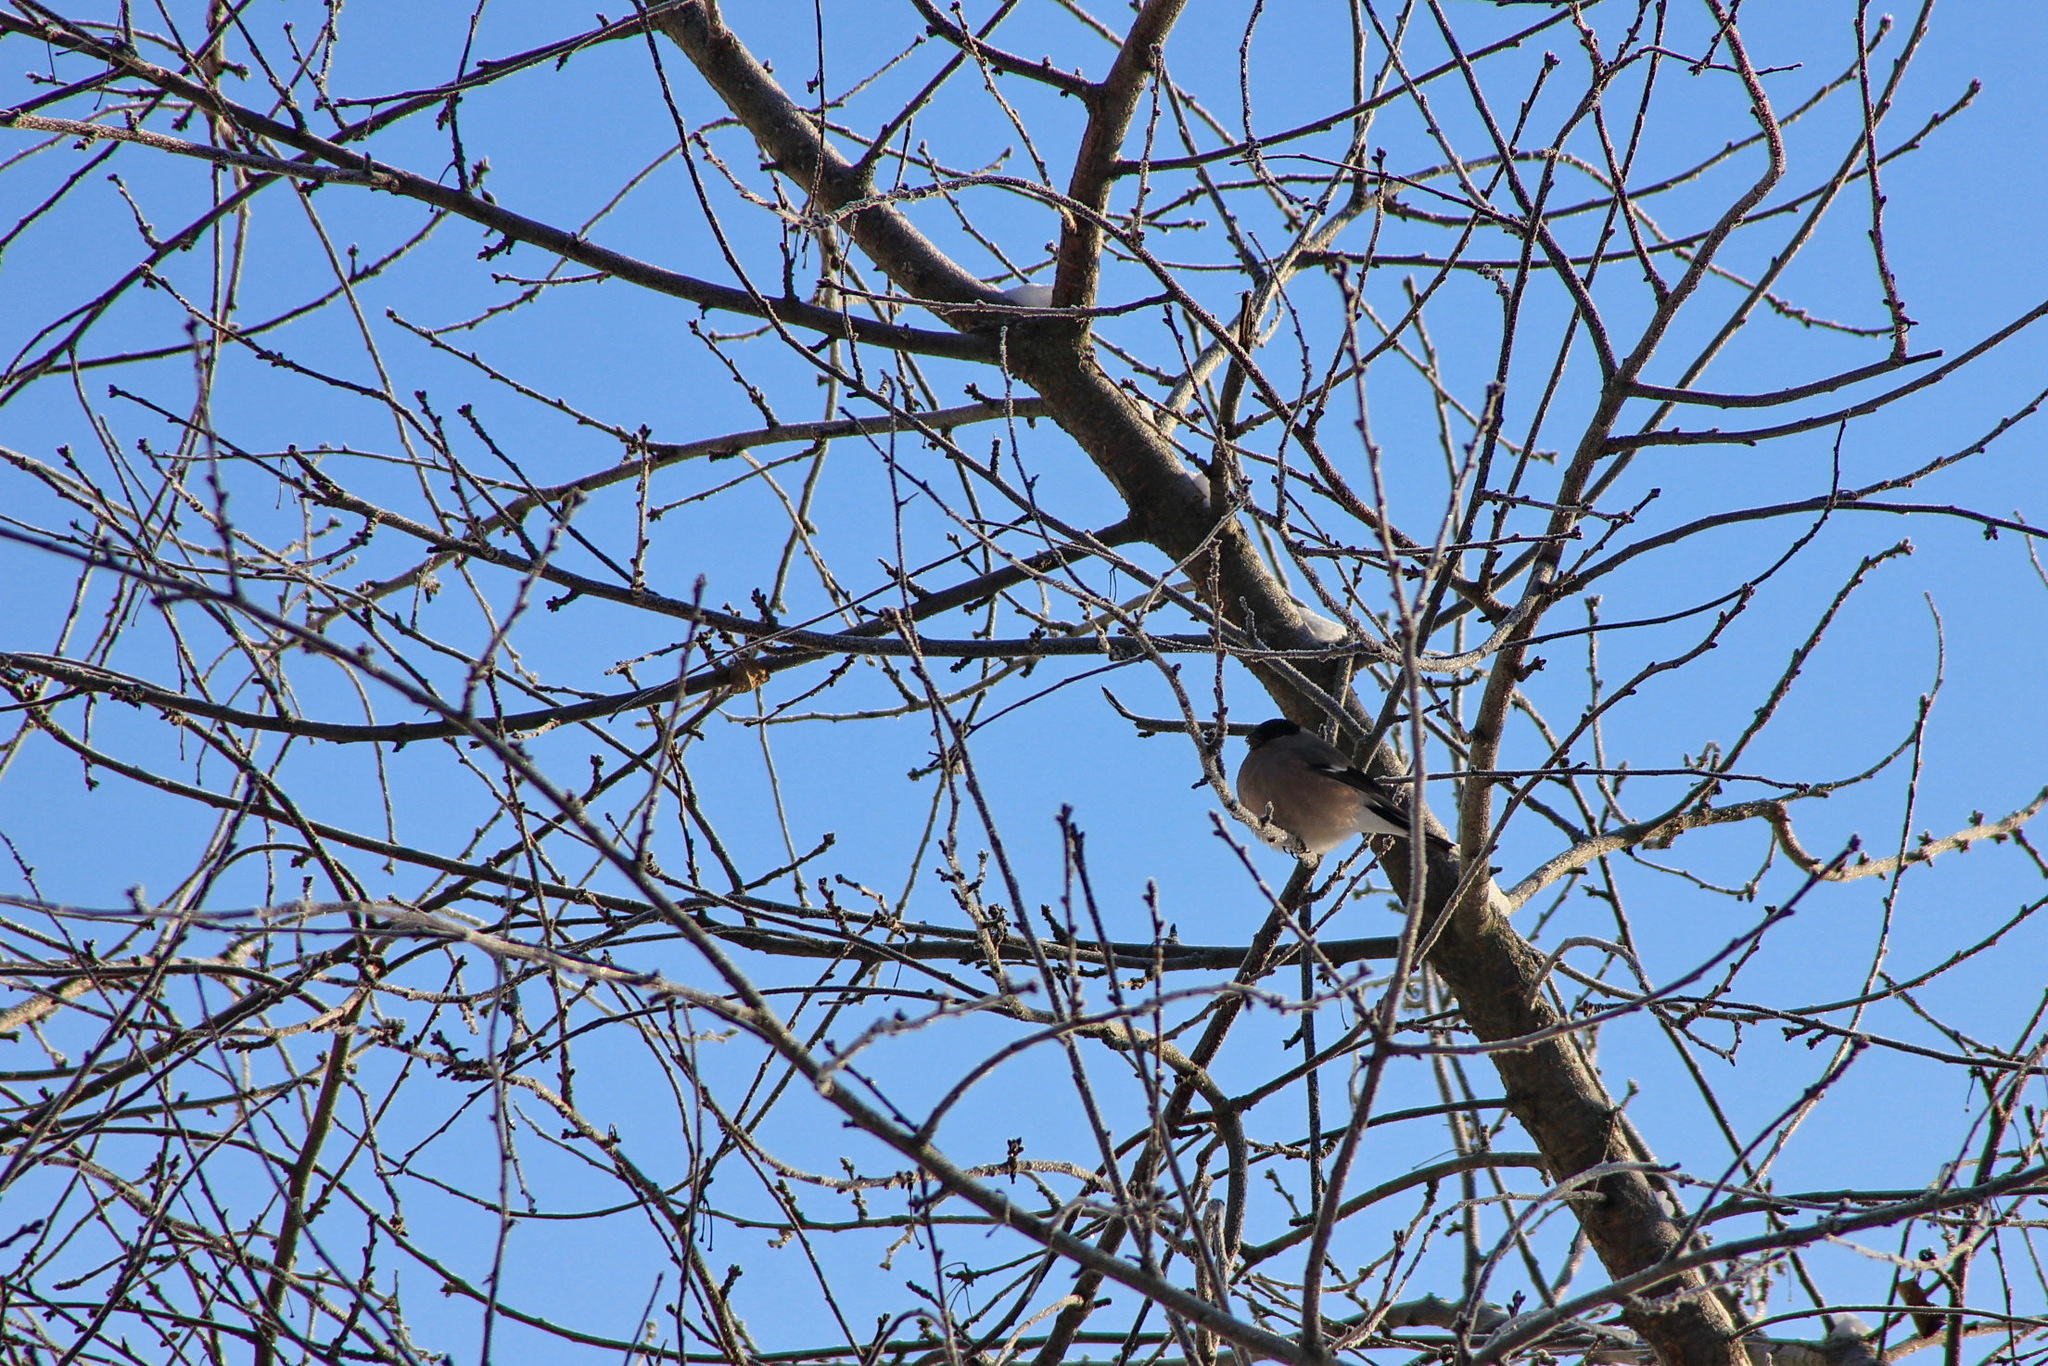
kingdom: Animalia
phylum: Chordata
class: Aves
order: Passeriformes
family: Fringillidae
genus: Pyrrhula
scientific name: Pyrrhula pyrrhula
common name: Eurasian bullfinch
